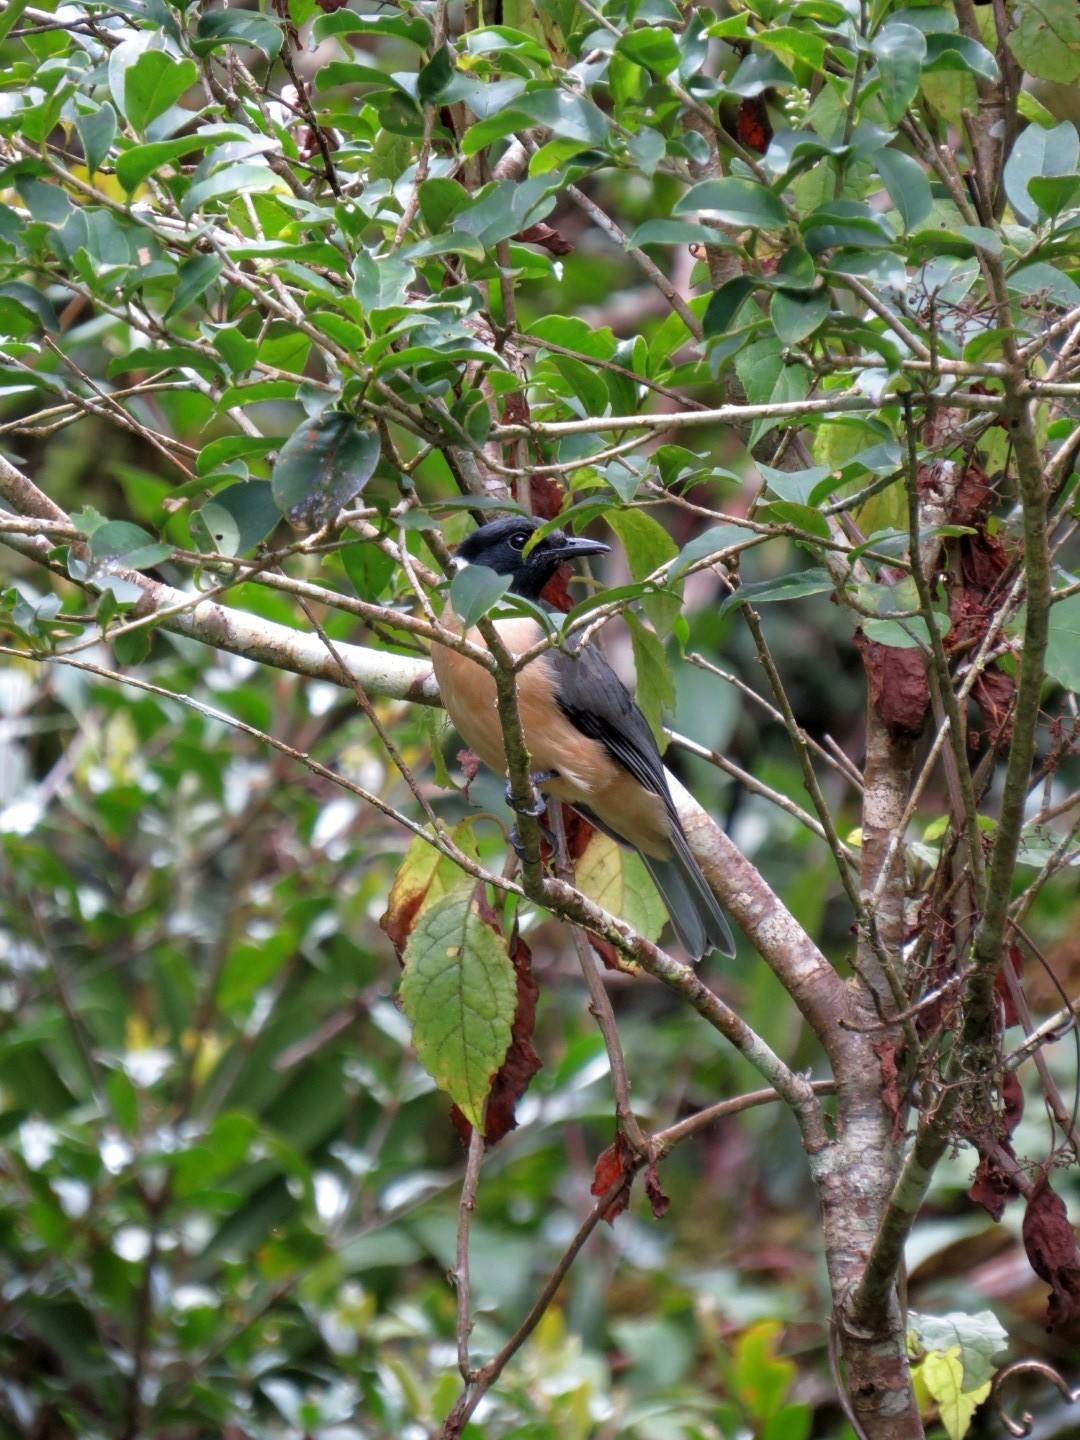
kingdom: Animalia
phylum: Chordata
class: Aves
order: Passeriformes
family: Vangidae
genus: Tylas
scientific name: Tylas eduardi
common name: Tylas vanga
